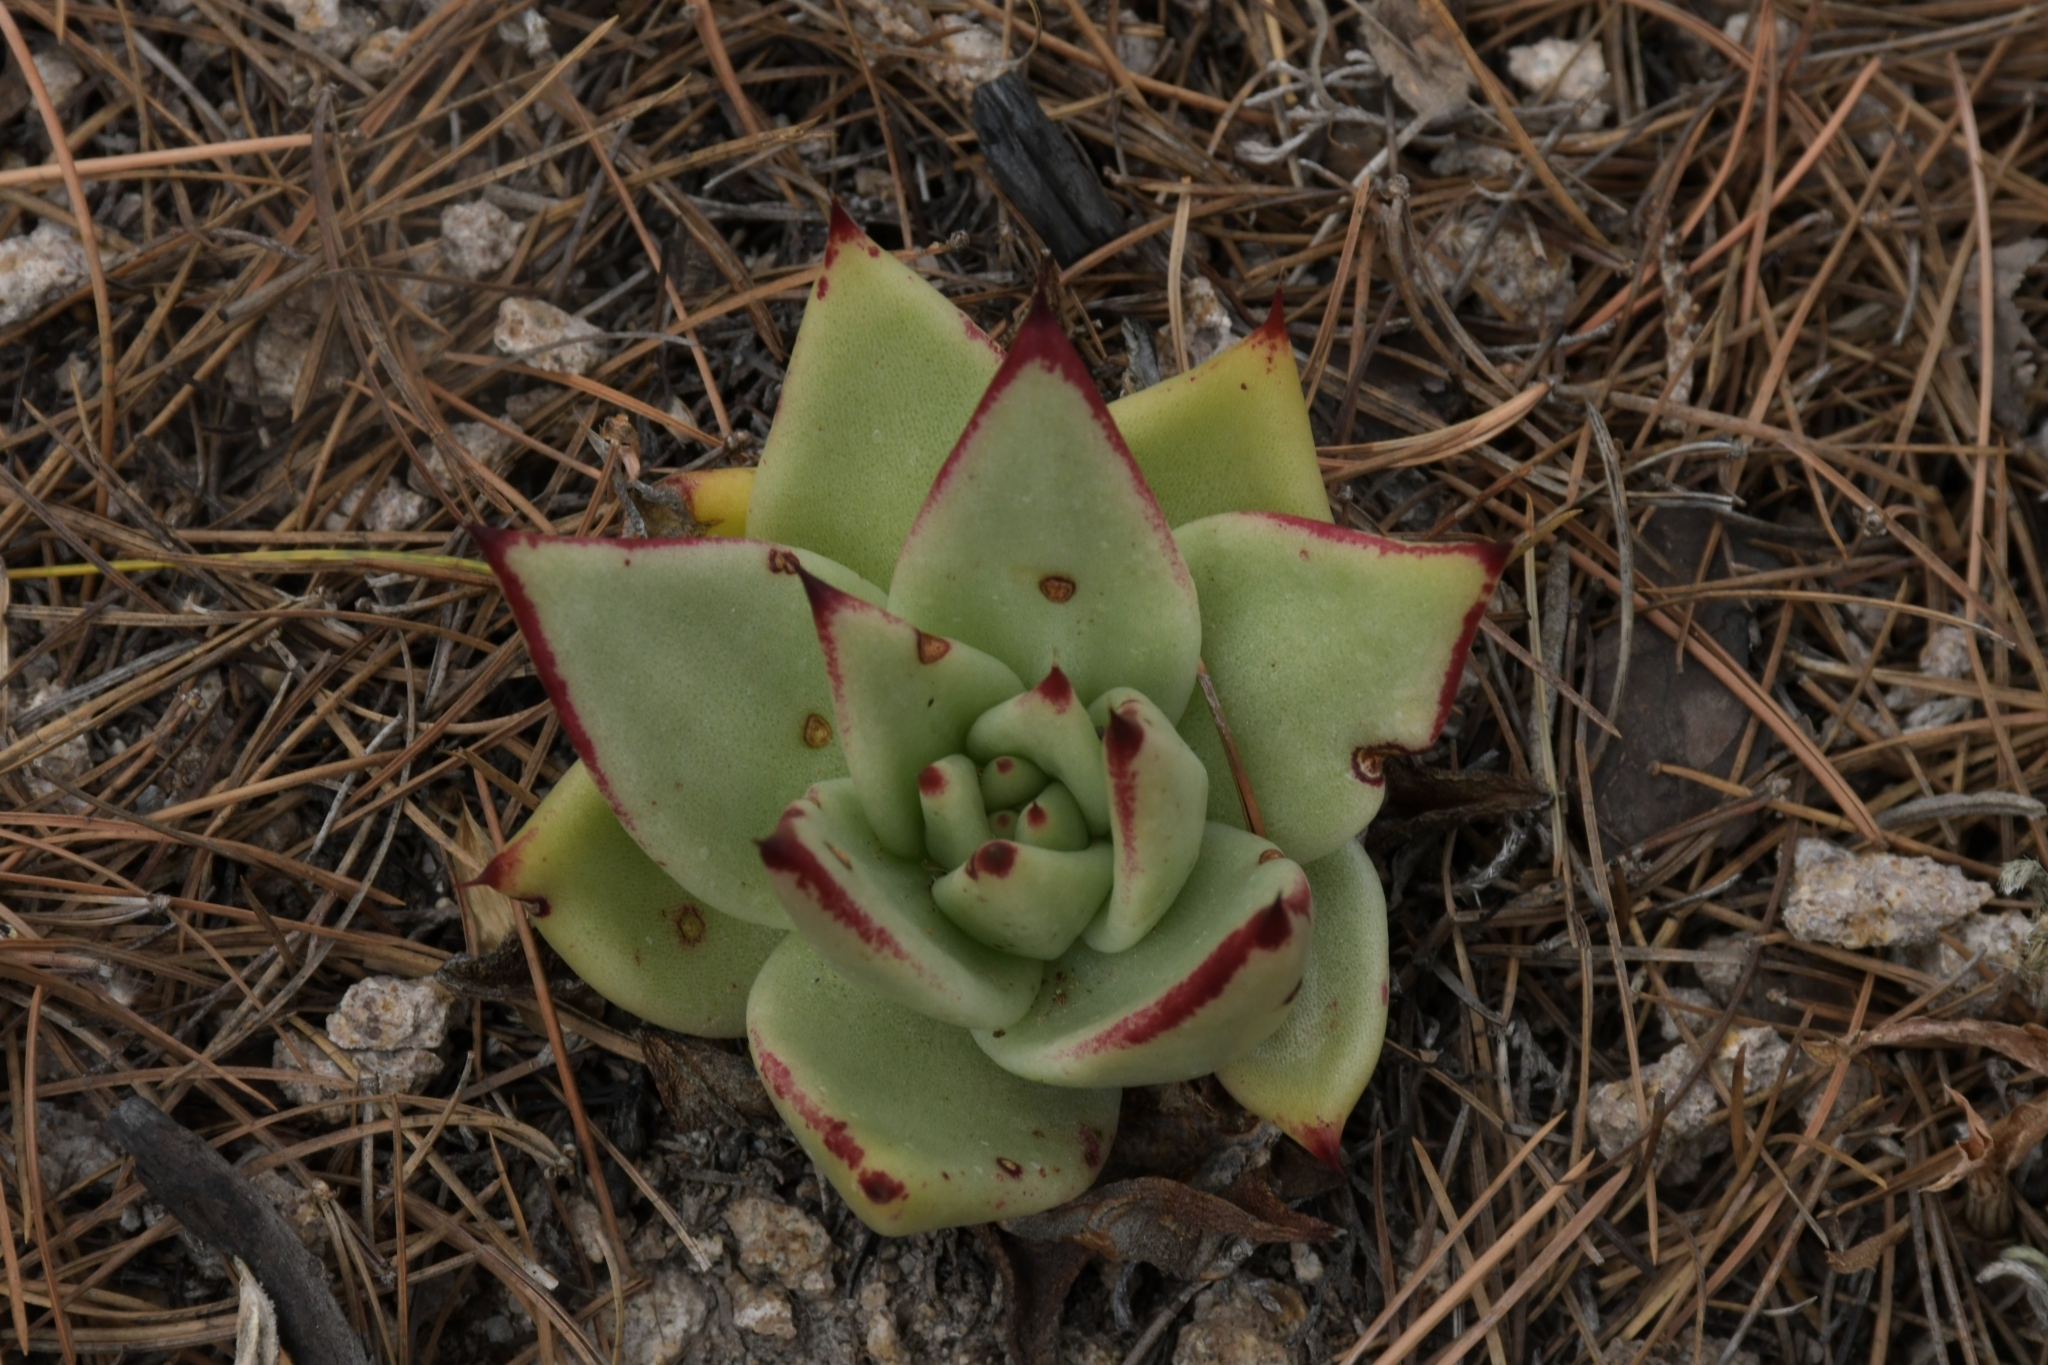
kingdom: Plantae
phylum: Tracheophyta
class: Magnoliopsida
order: Saxifragales
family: Crassulaceae
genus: Echeveria
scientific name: Echeveria agavoides
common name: Molded-wax
